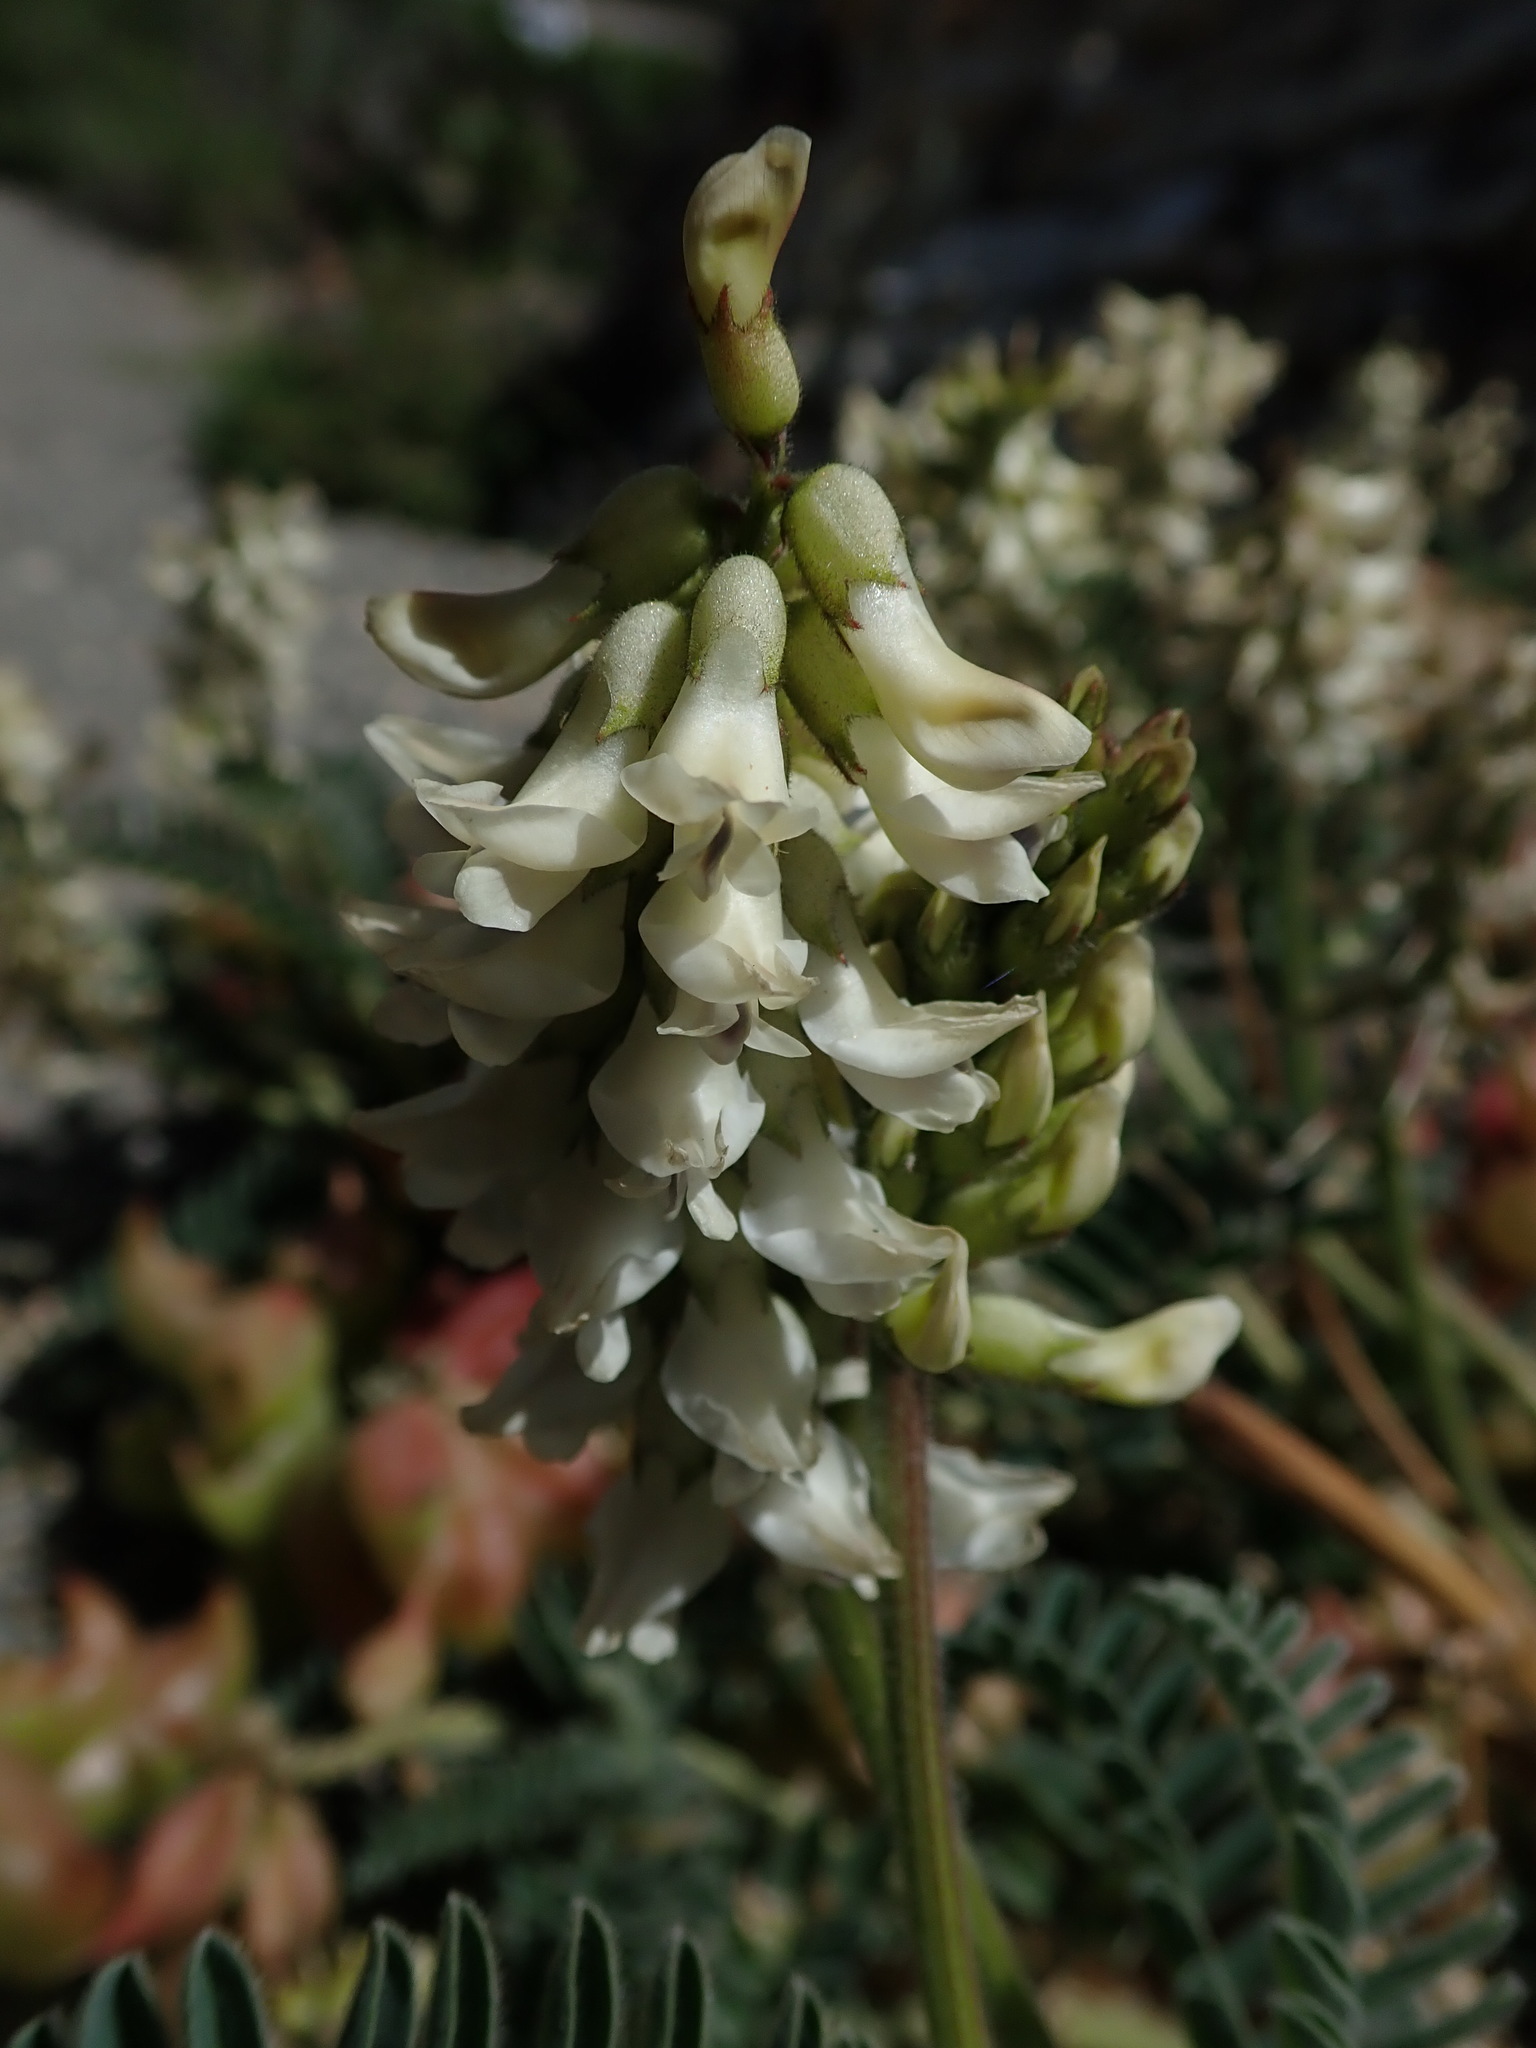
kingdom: Plantae
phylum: Tracheophyta
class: Magnoliopsida
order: Fabales
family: Fabaceae
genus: Astragalus
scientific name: Astragalus nuttallii
